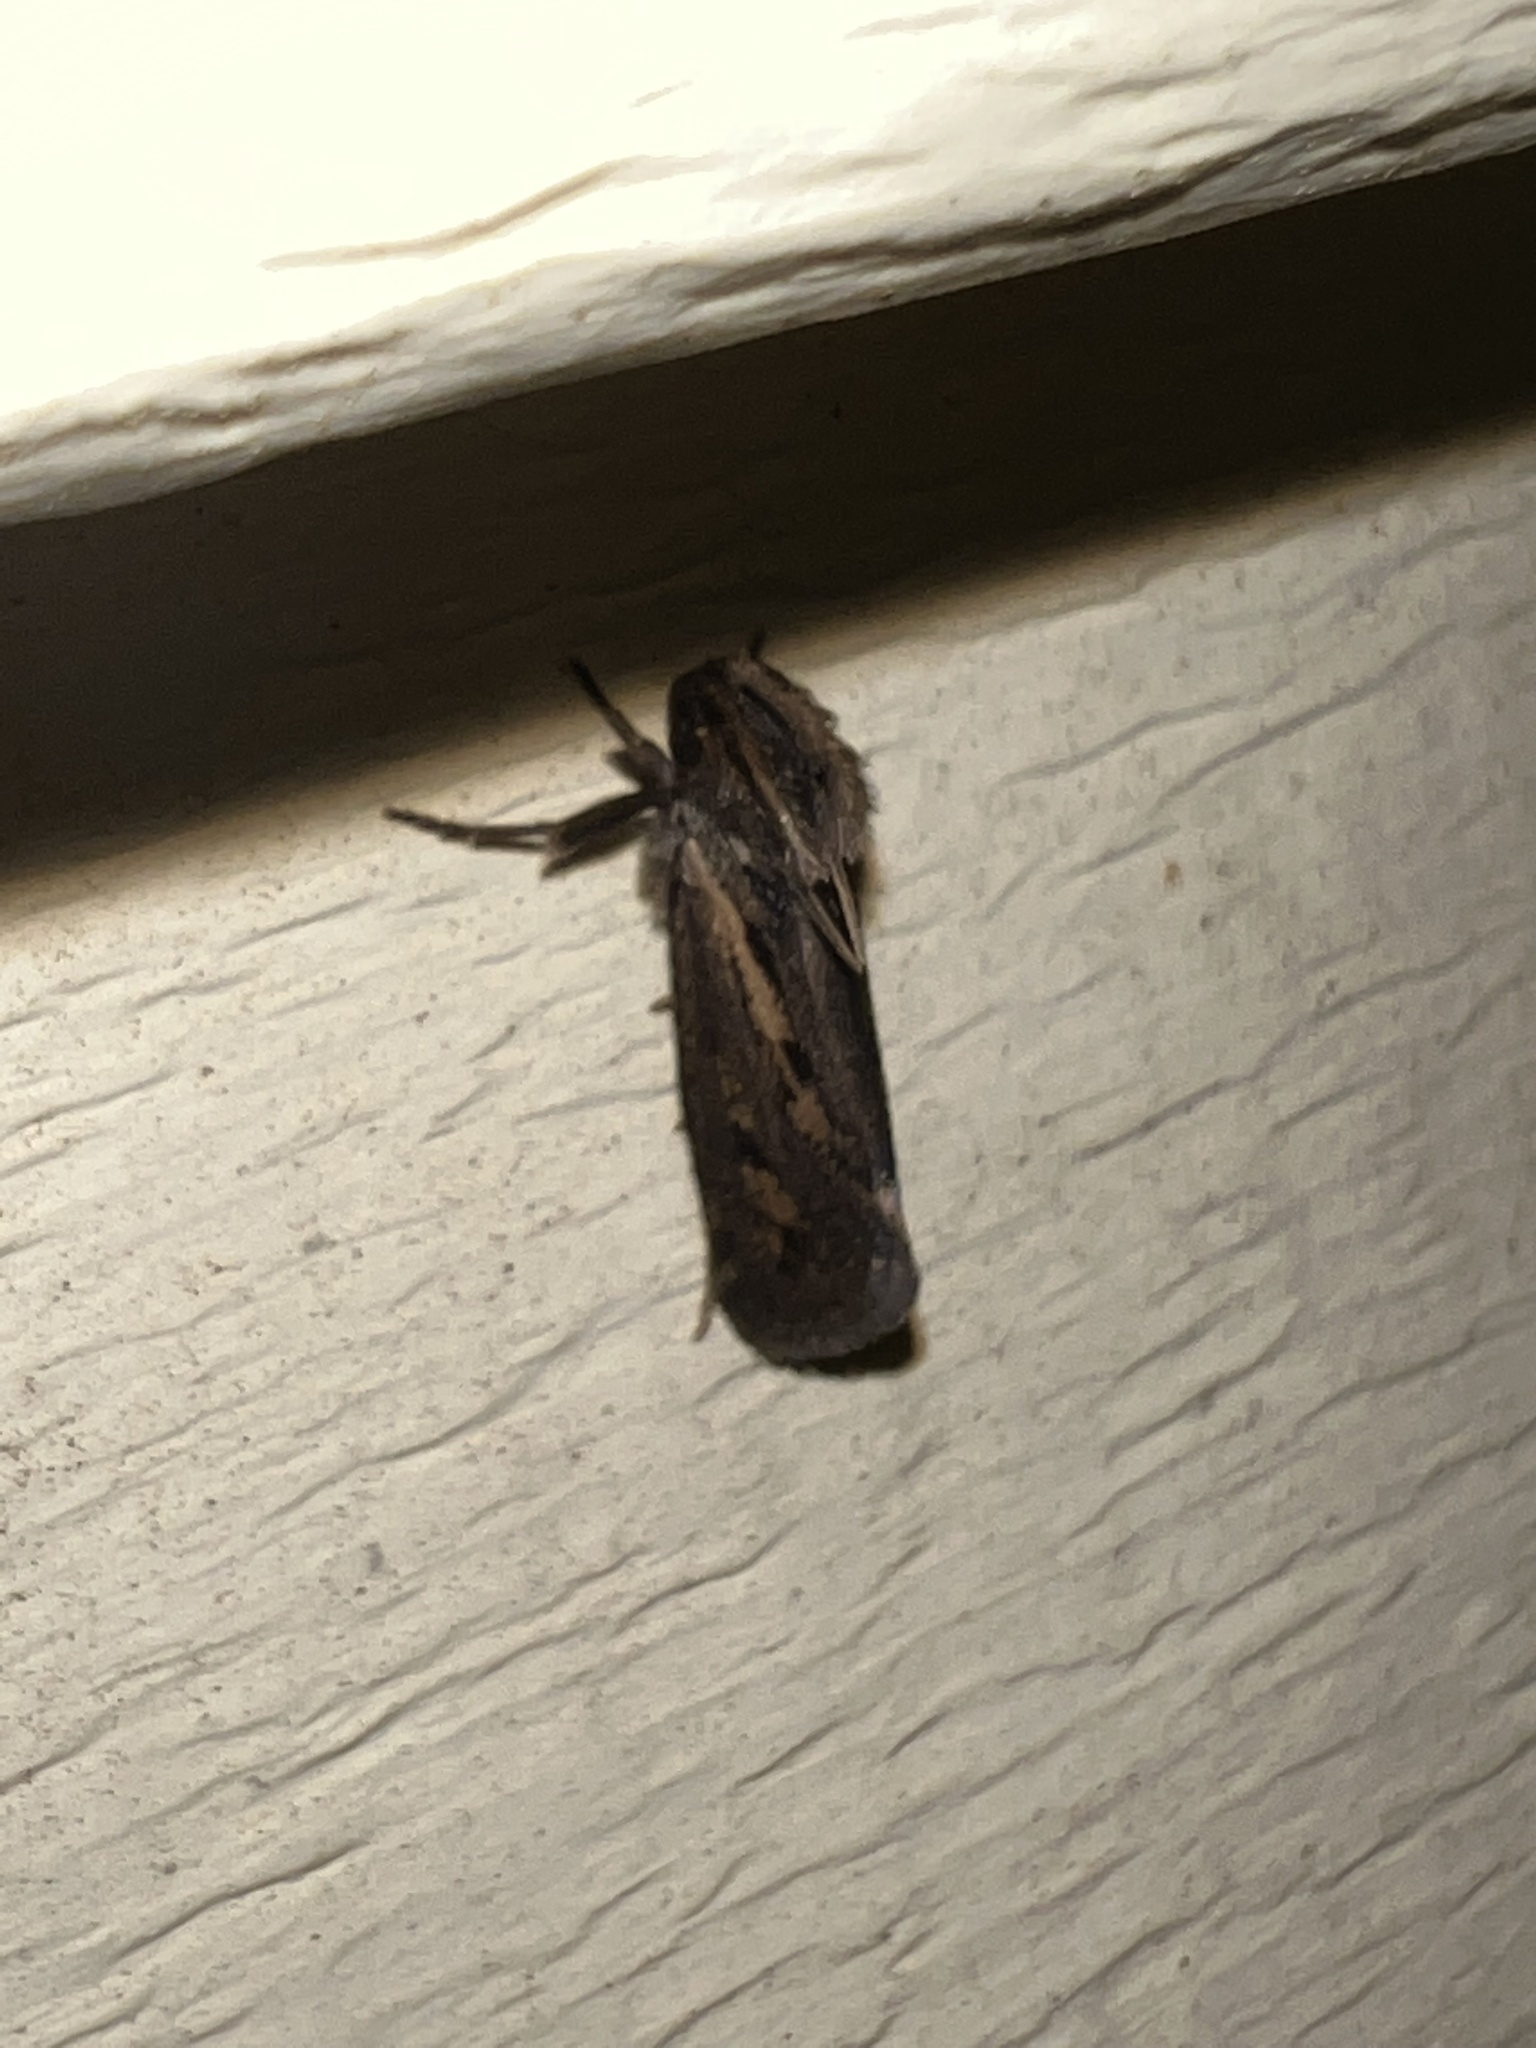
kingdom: Animalia
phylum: Arthropoda
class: Insecta
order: Lepidoptera
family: Tineidae
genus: Acrolophus
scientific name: Acrolophus popeanella
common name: Clemens' grass tubeworm moth
